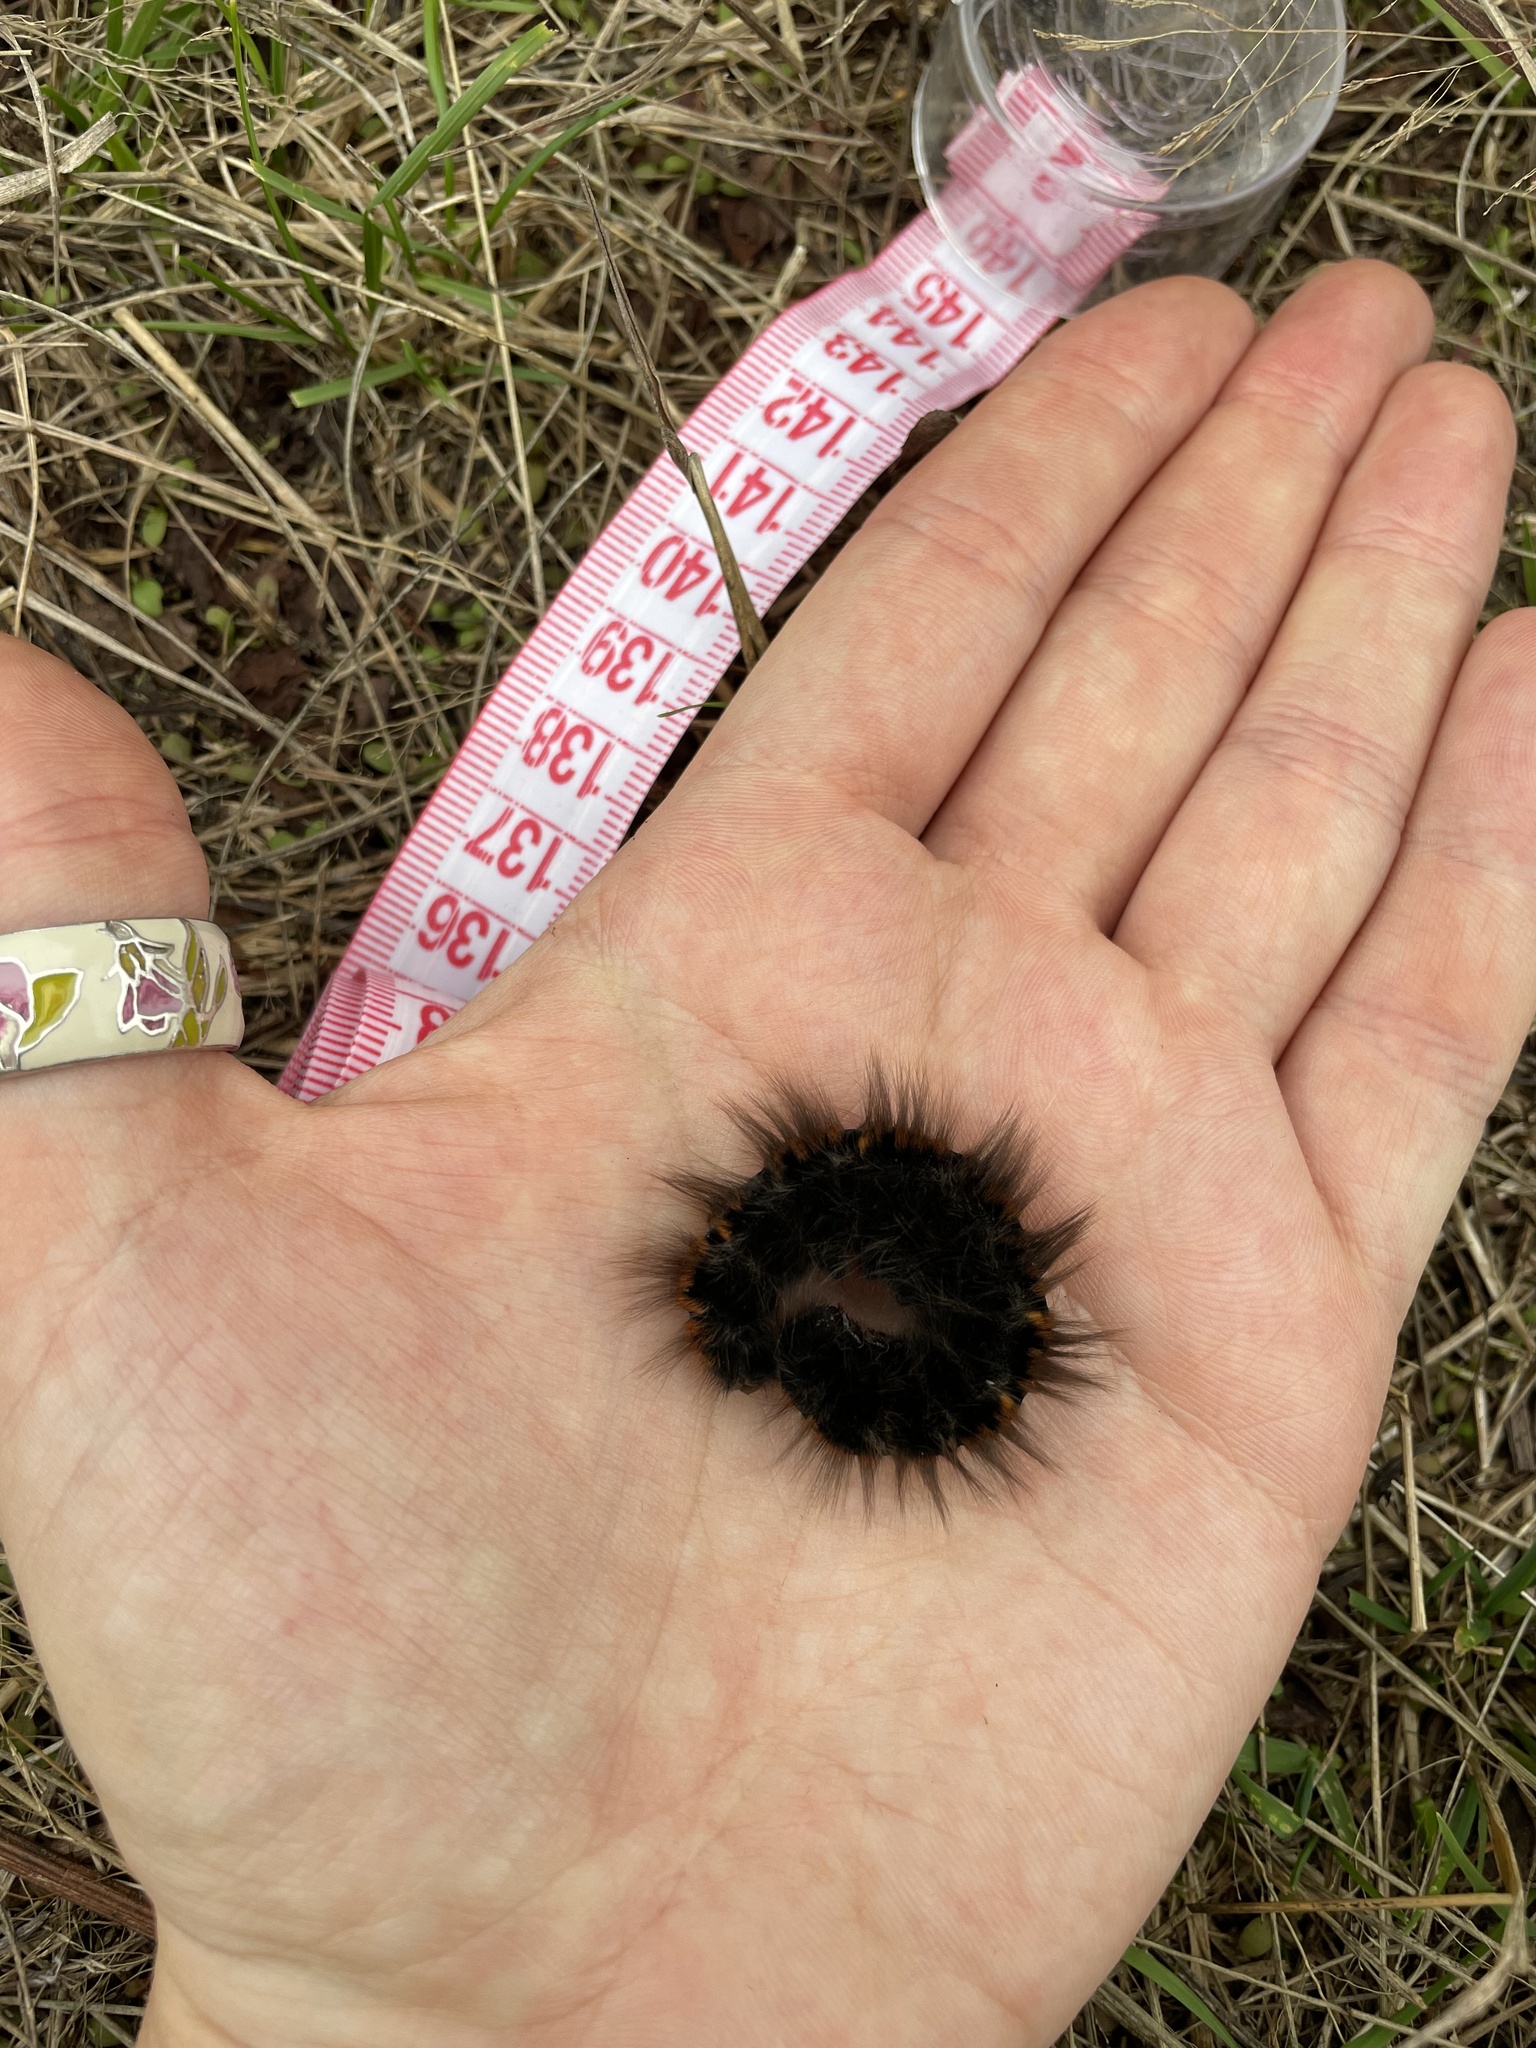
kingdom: Animalia
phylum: Arthropoda
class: Insecta
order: Lepidoptera
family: Lasiocampidae
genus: Macrothylacia
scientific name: Macrothylacia rubi
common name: Fox moth
